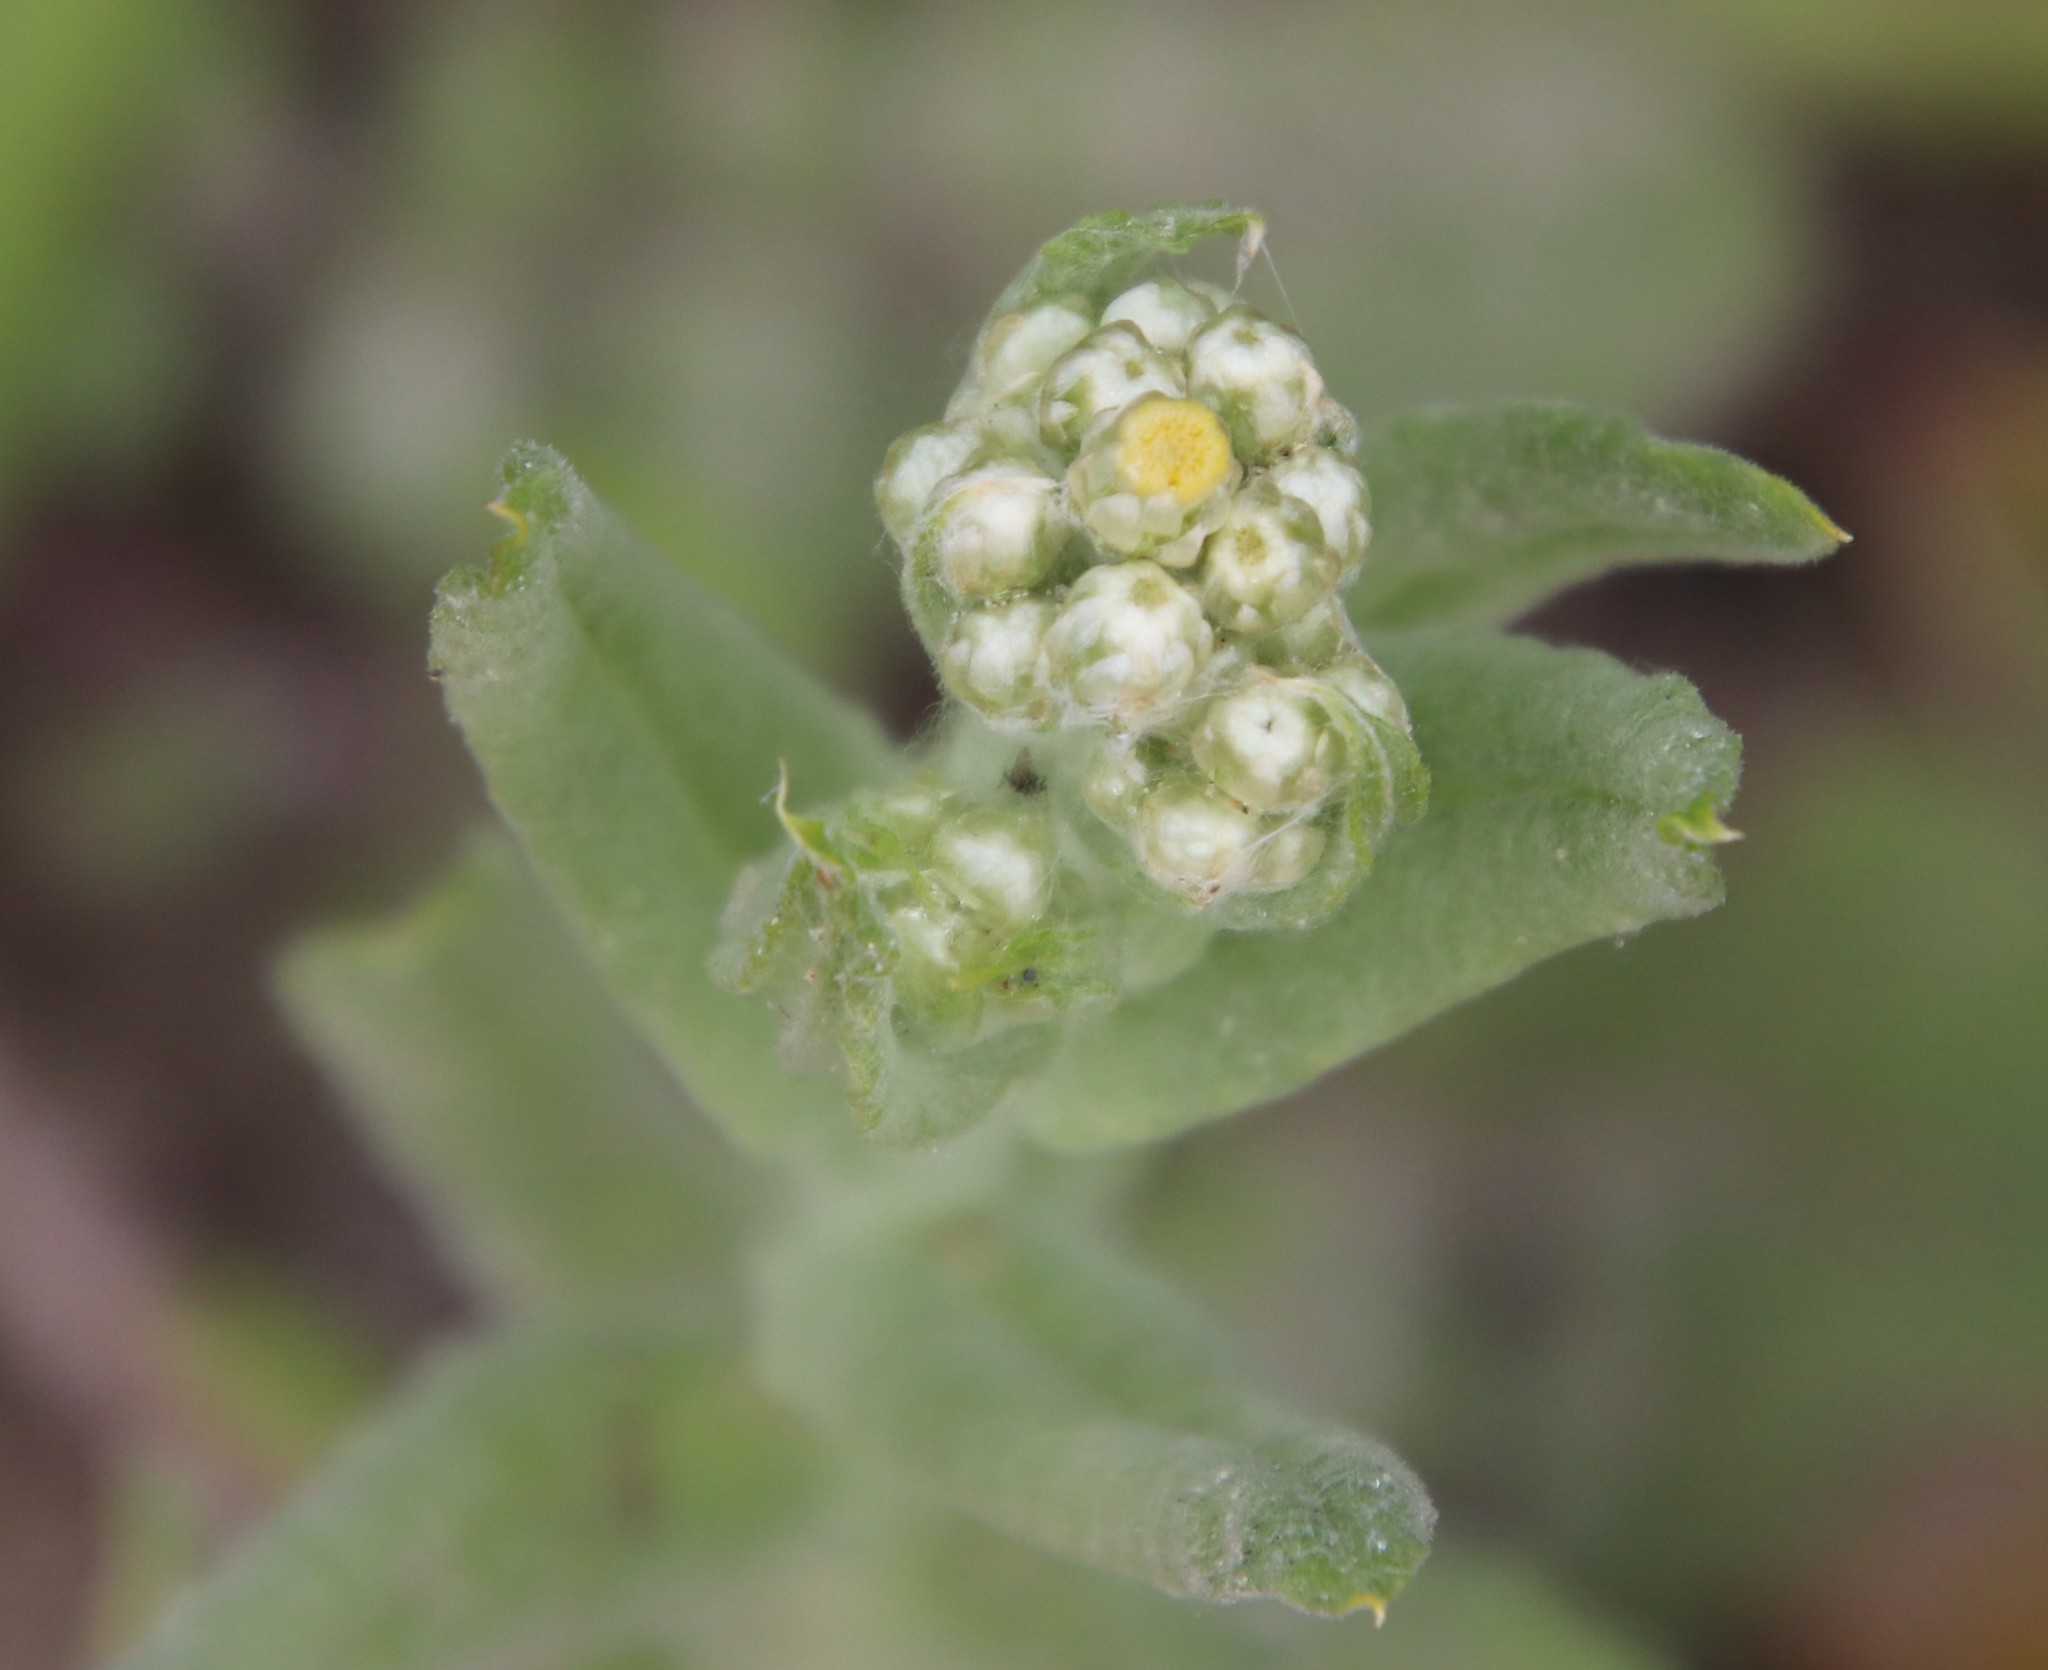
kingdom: Plantae
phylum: Tracheophyta
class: Magnoliopsida
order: Asterales
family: Asteraceae
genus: Pseudognaphalium
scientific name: Pseudognaphalium stramineum
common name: Cotton-batting-plant
